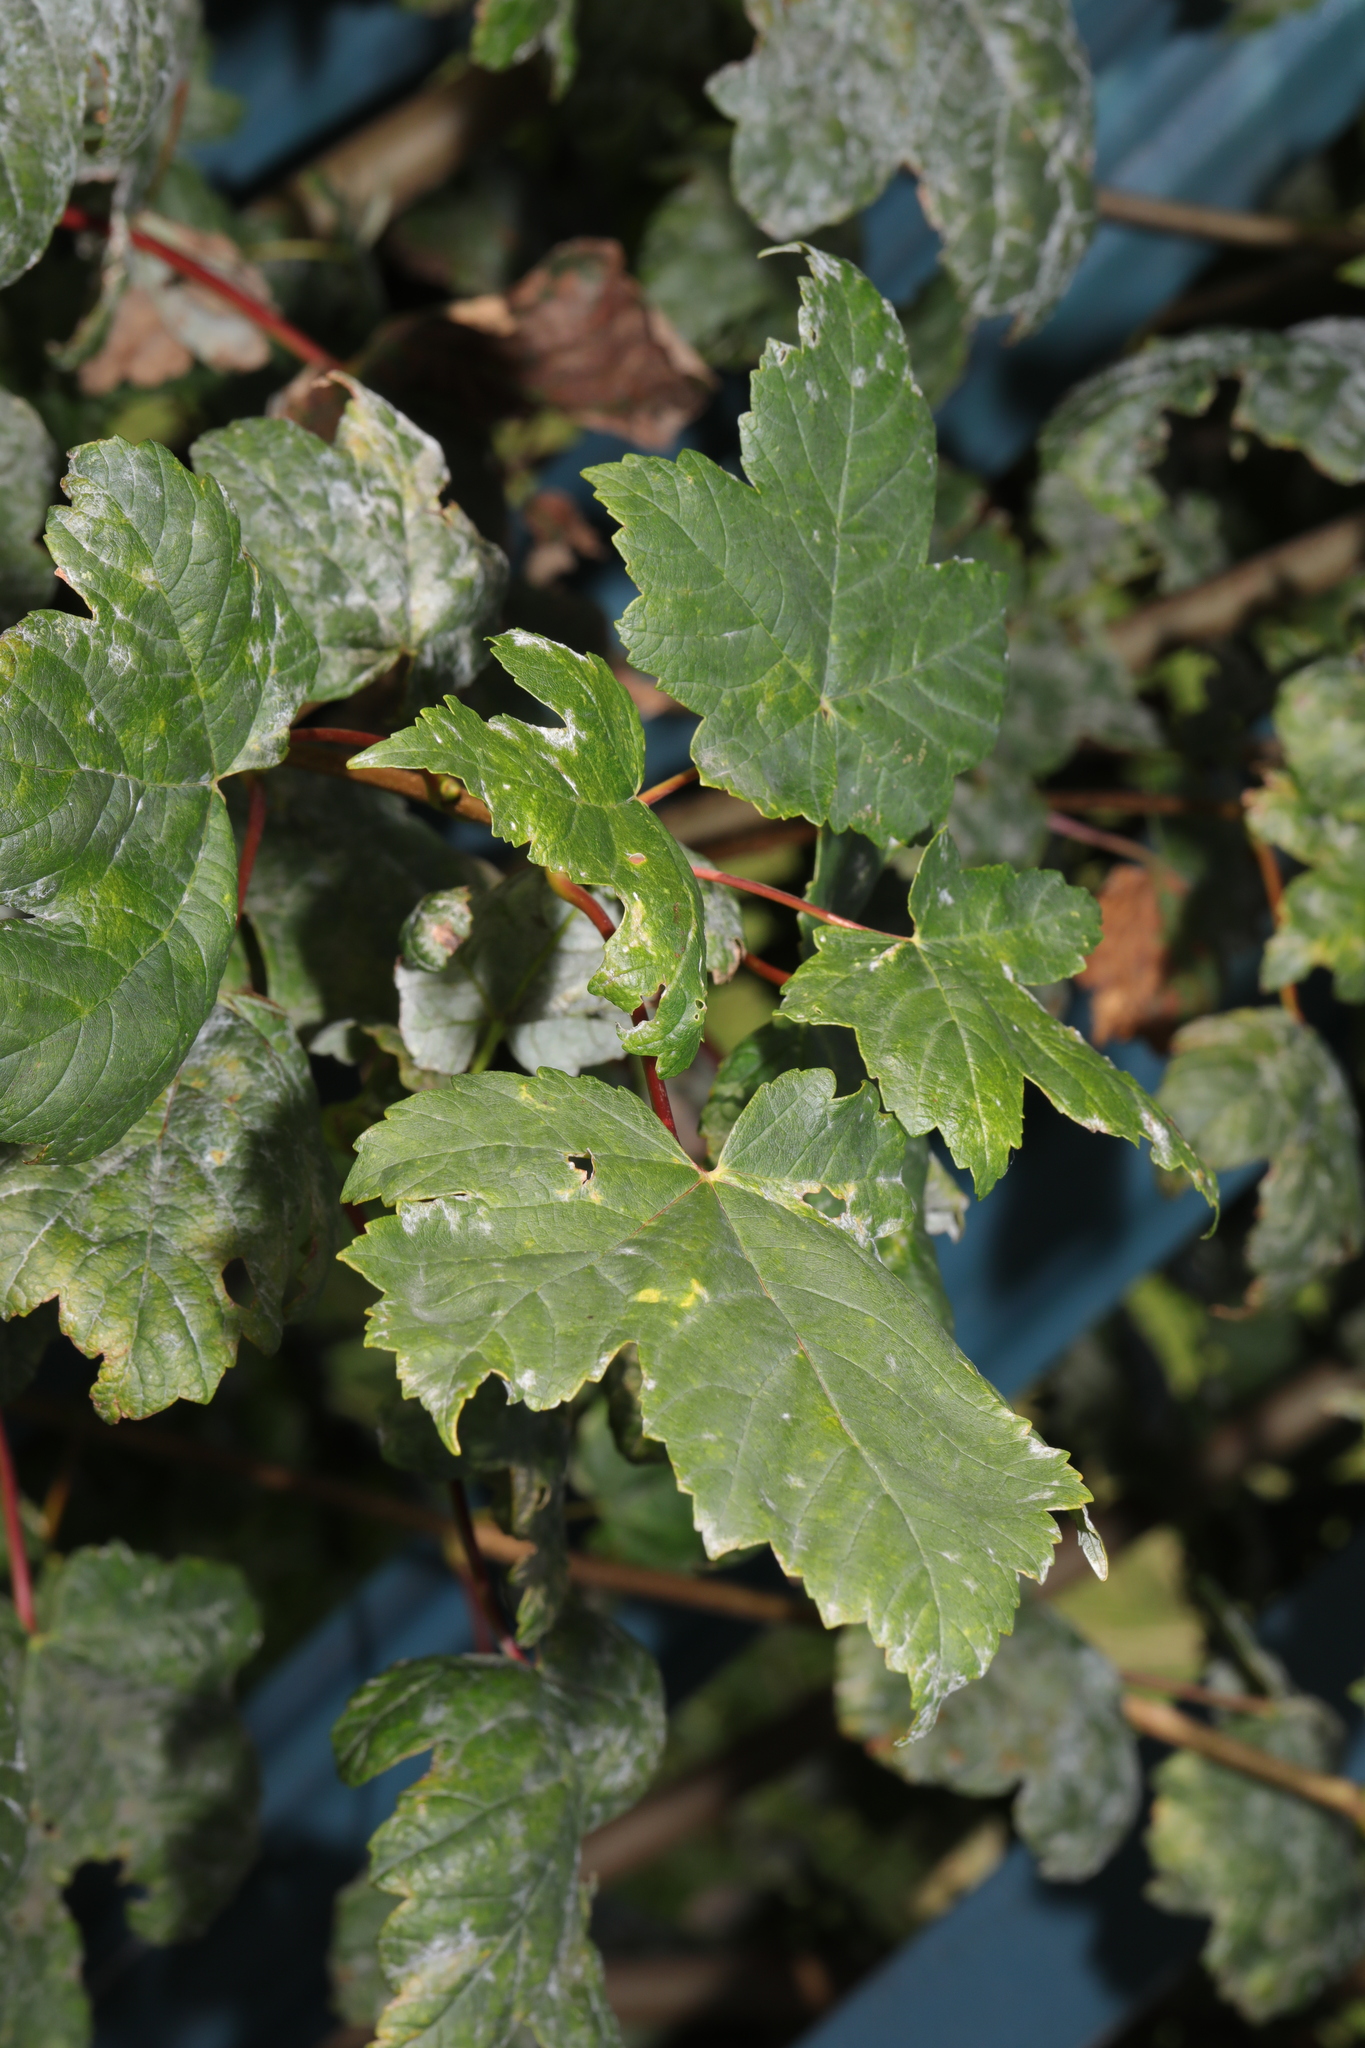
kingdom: Plantae
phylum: Tracheophyta
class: Magnoliopsida
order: Sapindales
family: Sapindaceae
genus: Acer
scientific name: Acer pseudoplatanus
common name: Sycamore
